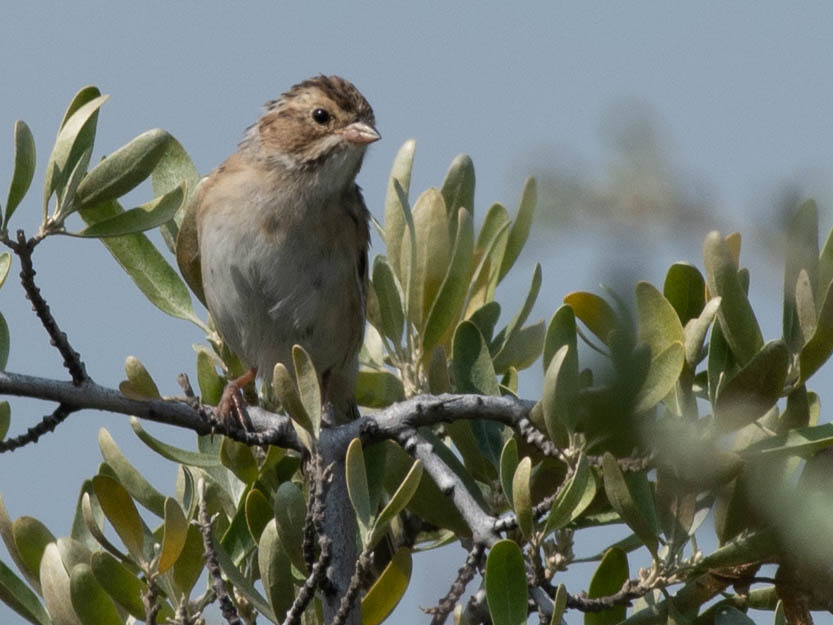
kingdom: Animalia
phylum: Chordata
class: Aves
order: Passeriformes
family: Passerellidae
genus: Spizella
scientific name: Spizella pallida
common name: Clay-colored sparrow
